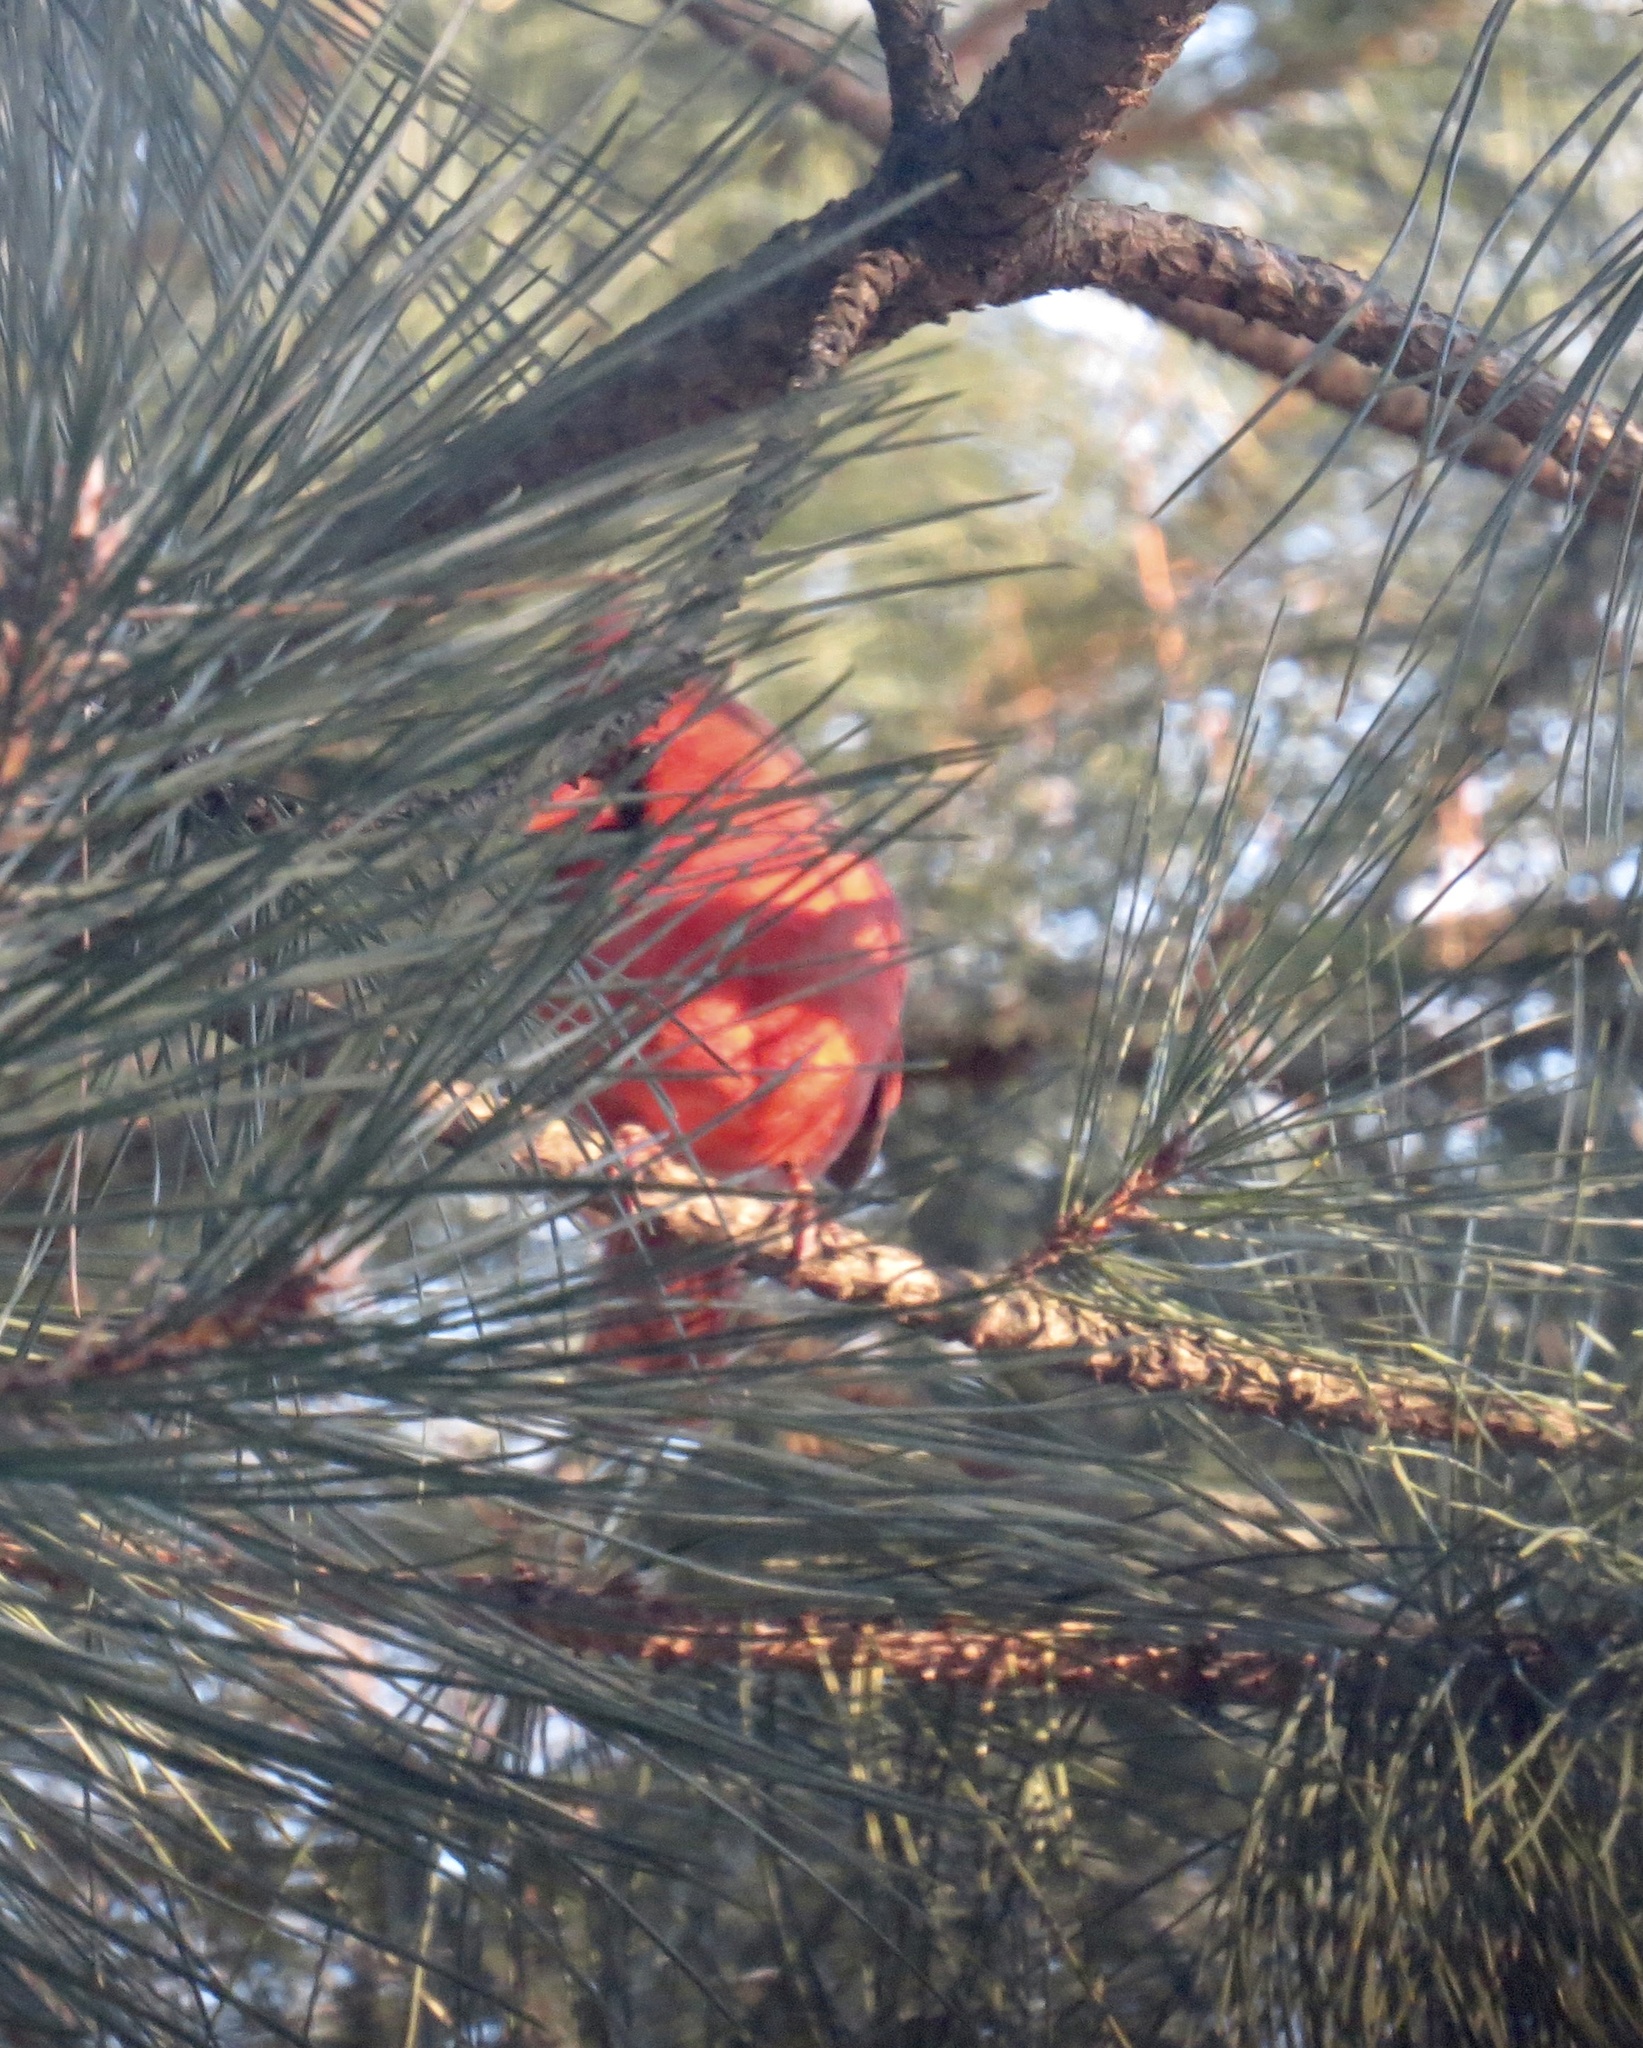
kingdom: Animalia
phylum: Chordata
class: Aves
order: Passeriformes
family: Cardinalidae
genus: Cardinalis
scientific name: Cardinalis cardinalis
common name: Northern cardinal
